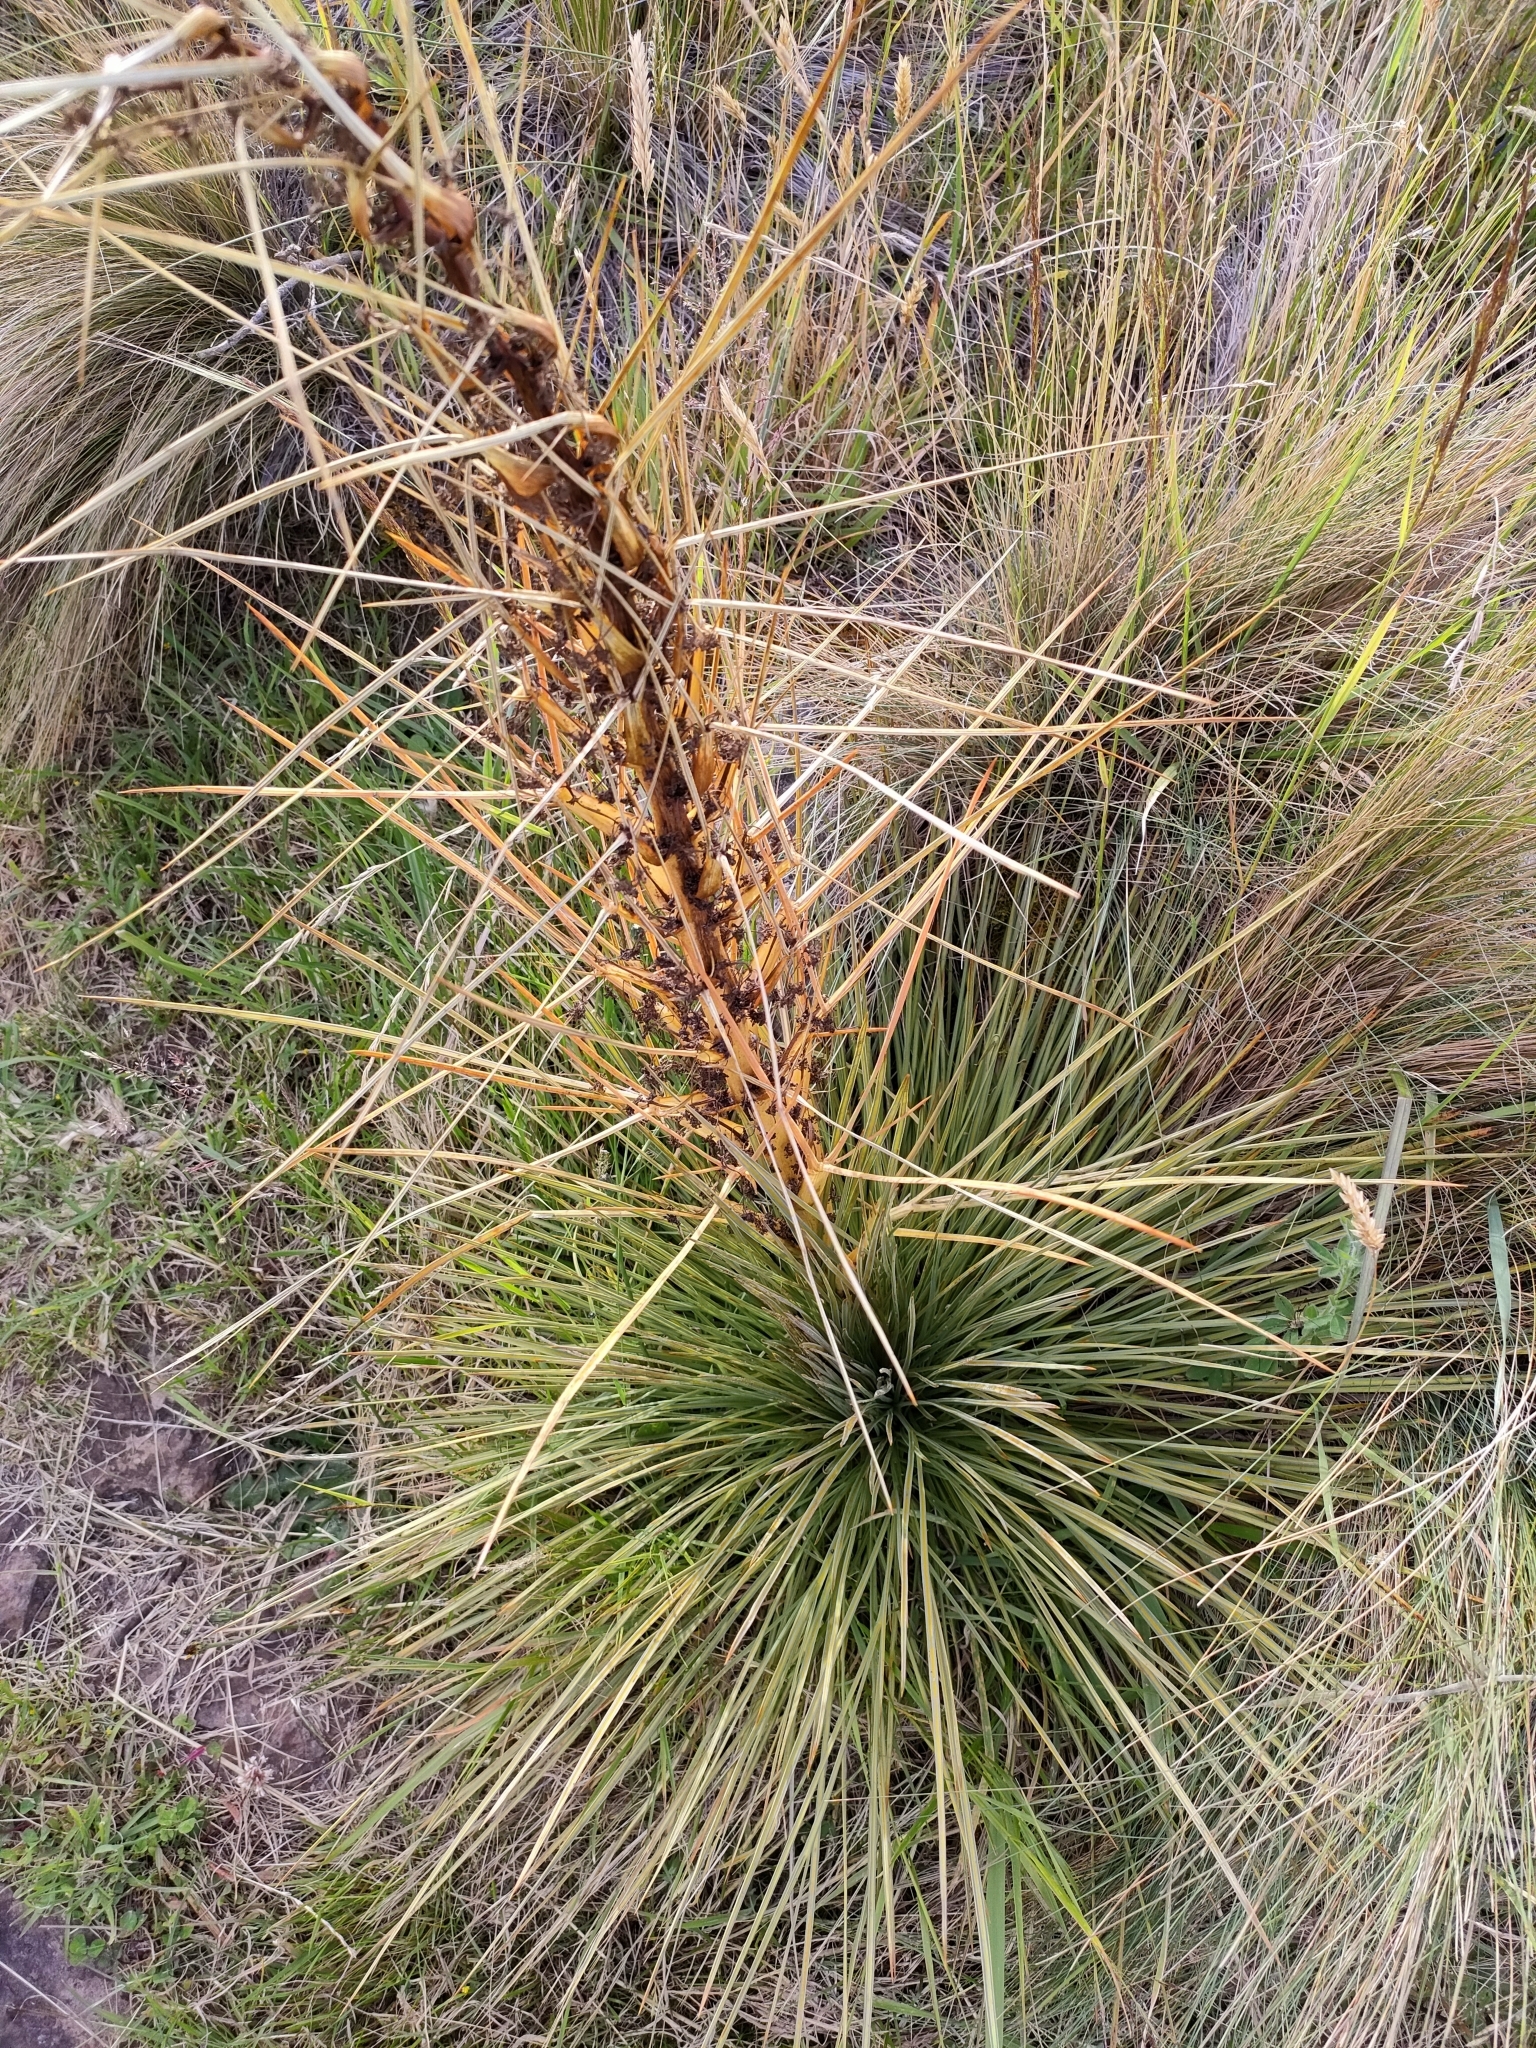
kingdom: Plantae
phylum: Tracheophyta
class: Magnoliopsida
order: Apiales
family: Apiaceae
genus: Aciphylla
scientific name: Aciphylla subflabellata
